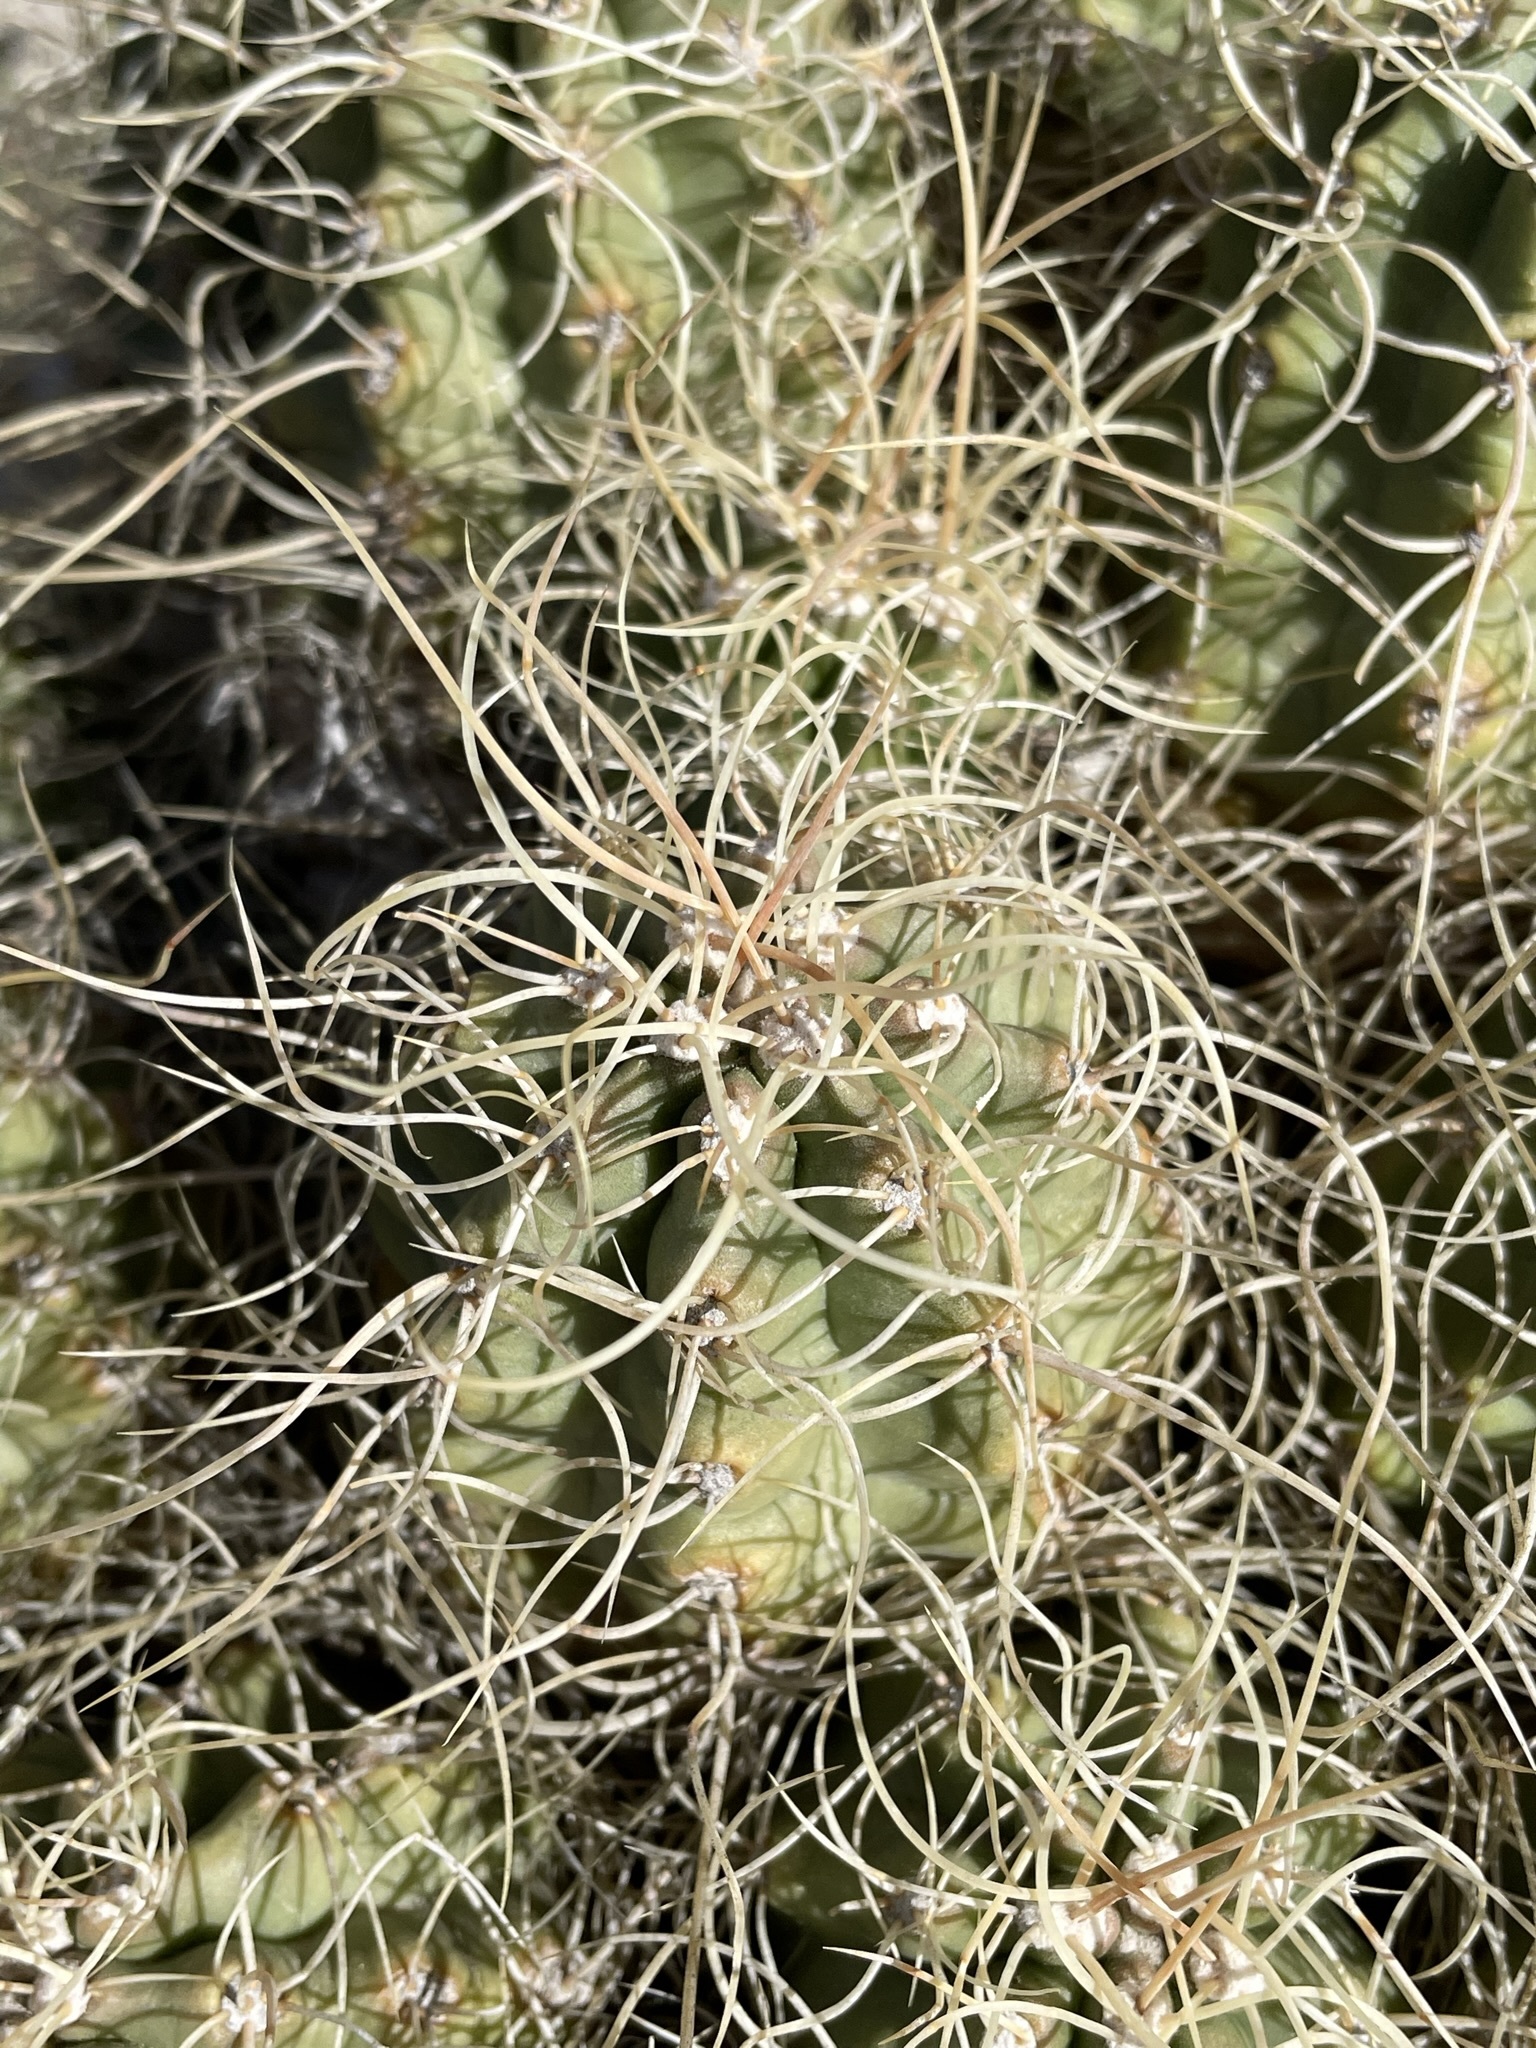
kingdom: Plantae
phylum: Tracheophyta
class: Magnoliopsida
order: Caryophyllales
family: Cactaceae
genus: Echinocereus
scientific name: Echinocereus triglochidiatus
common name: Claretcup hedgehog
